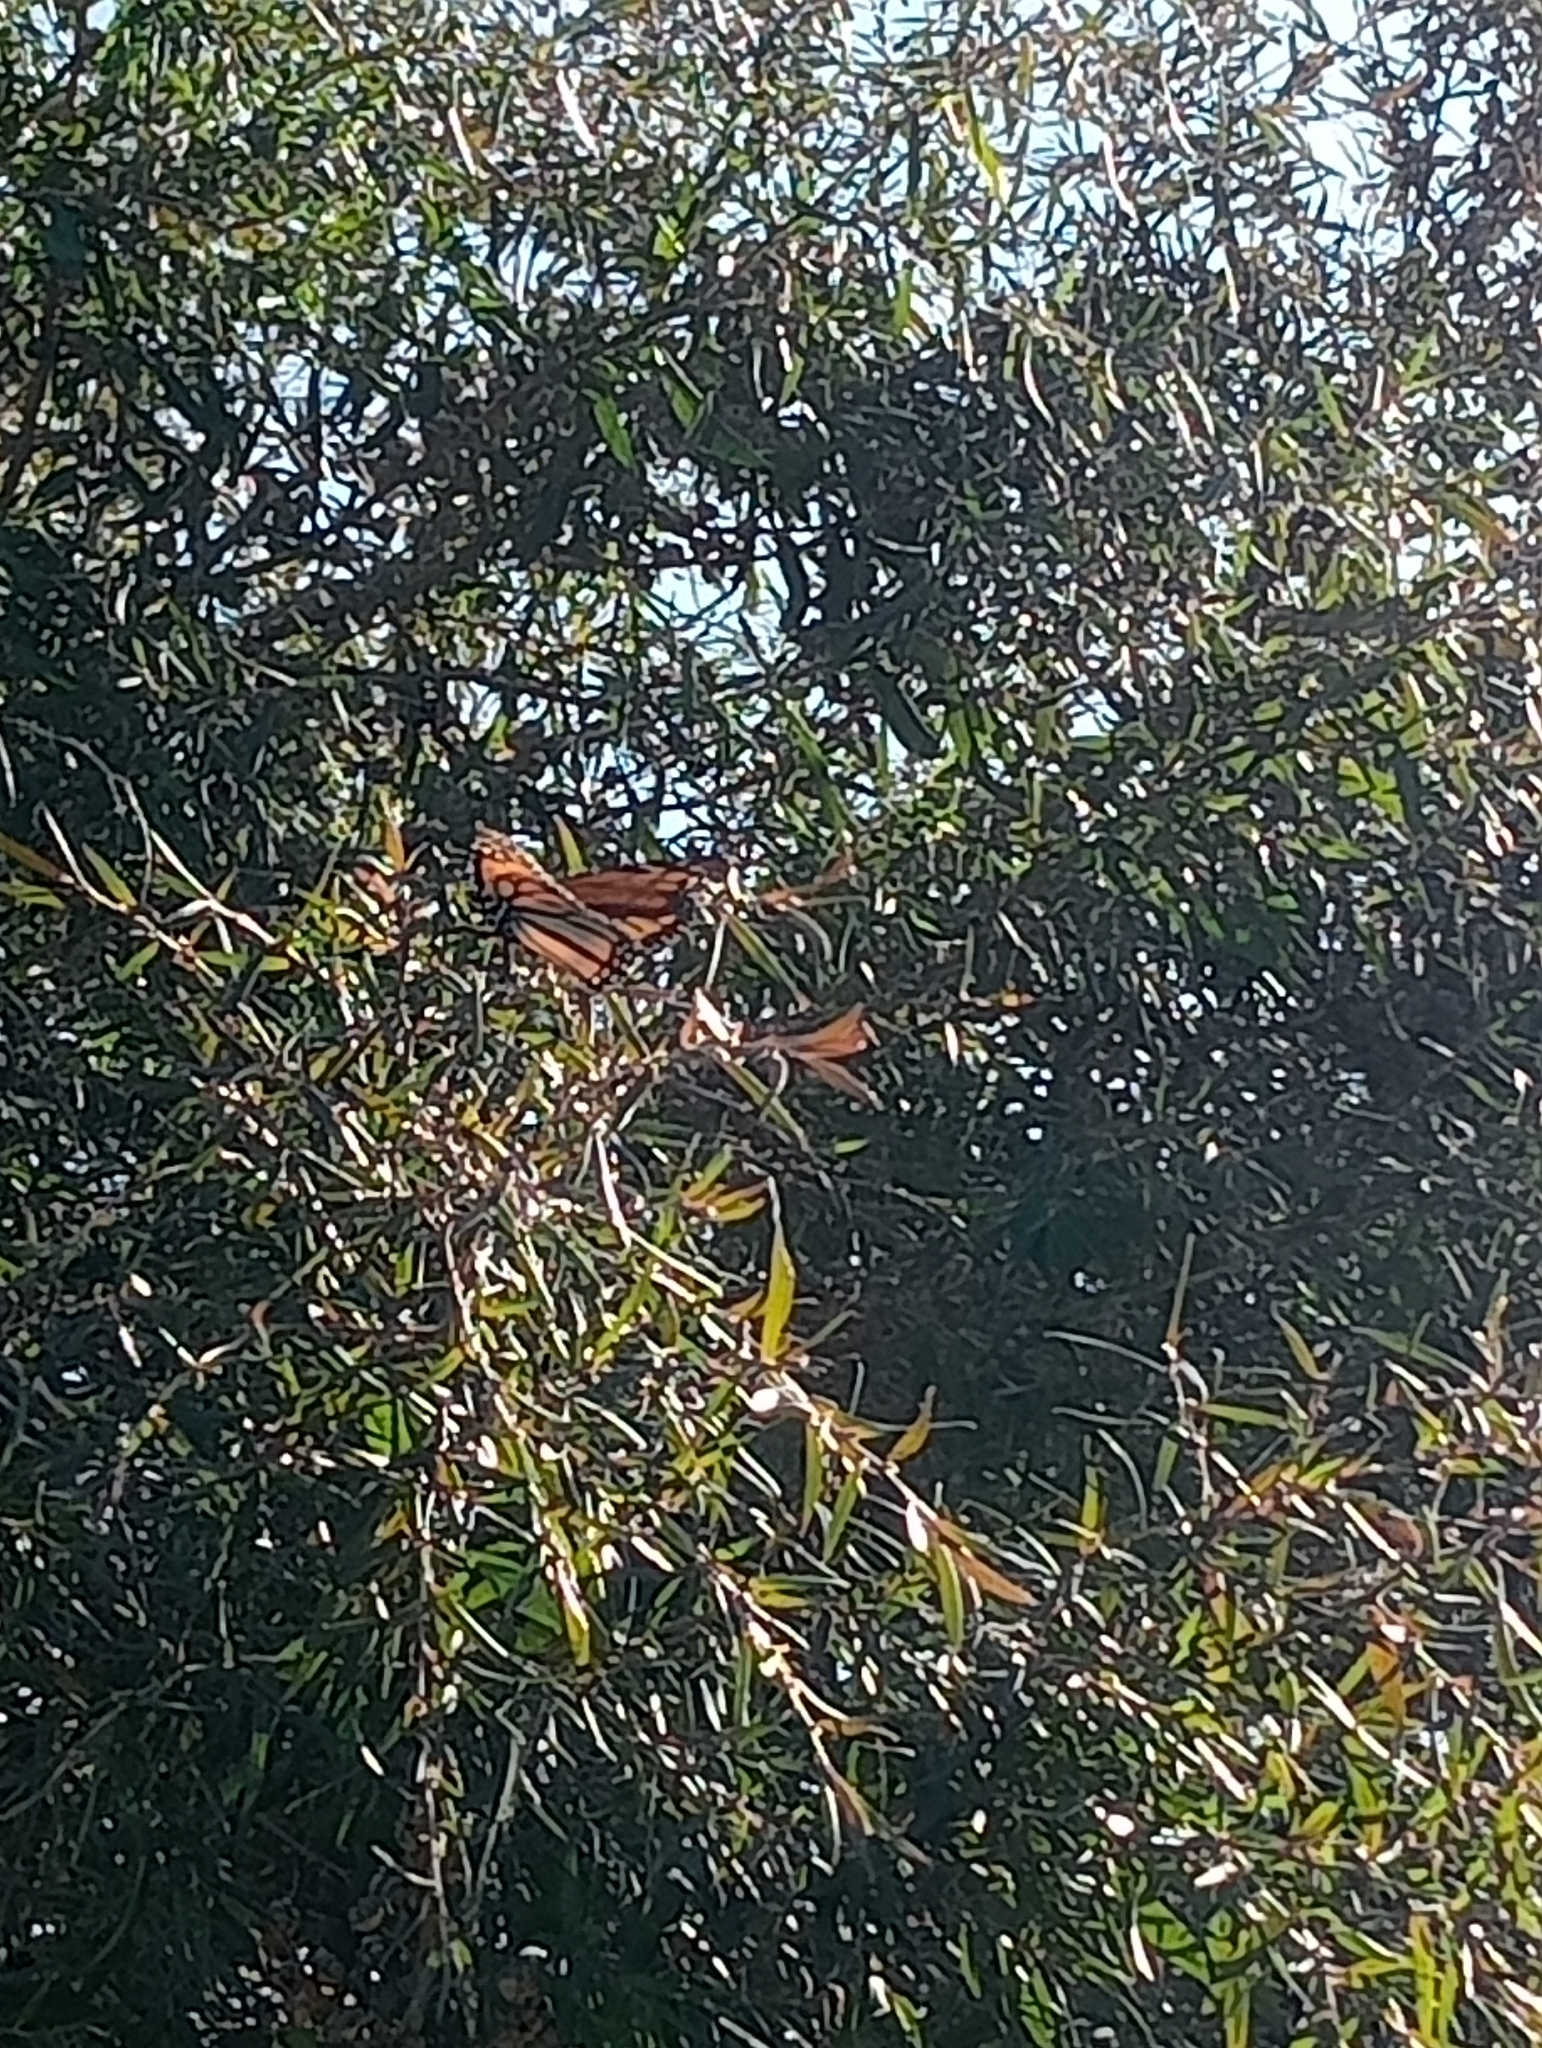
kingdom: Animalia
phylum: Arthropoda
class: Insecta
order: Lepidoptera
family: Nymphalidae
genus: Danaus
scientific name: Danaus plexippus
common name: Monarch
